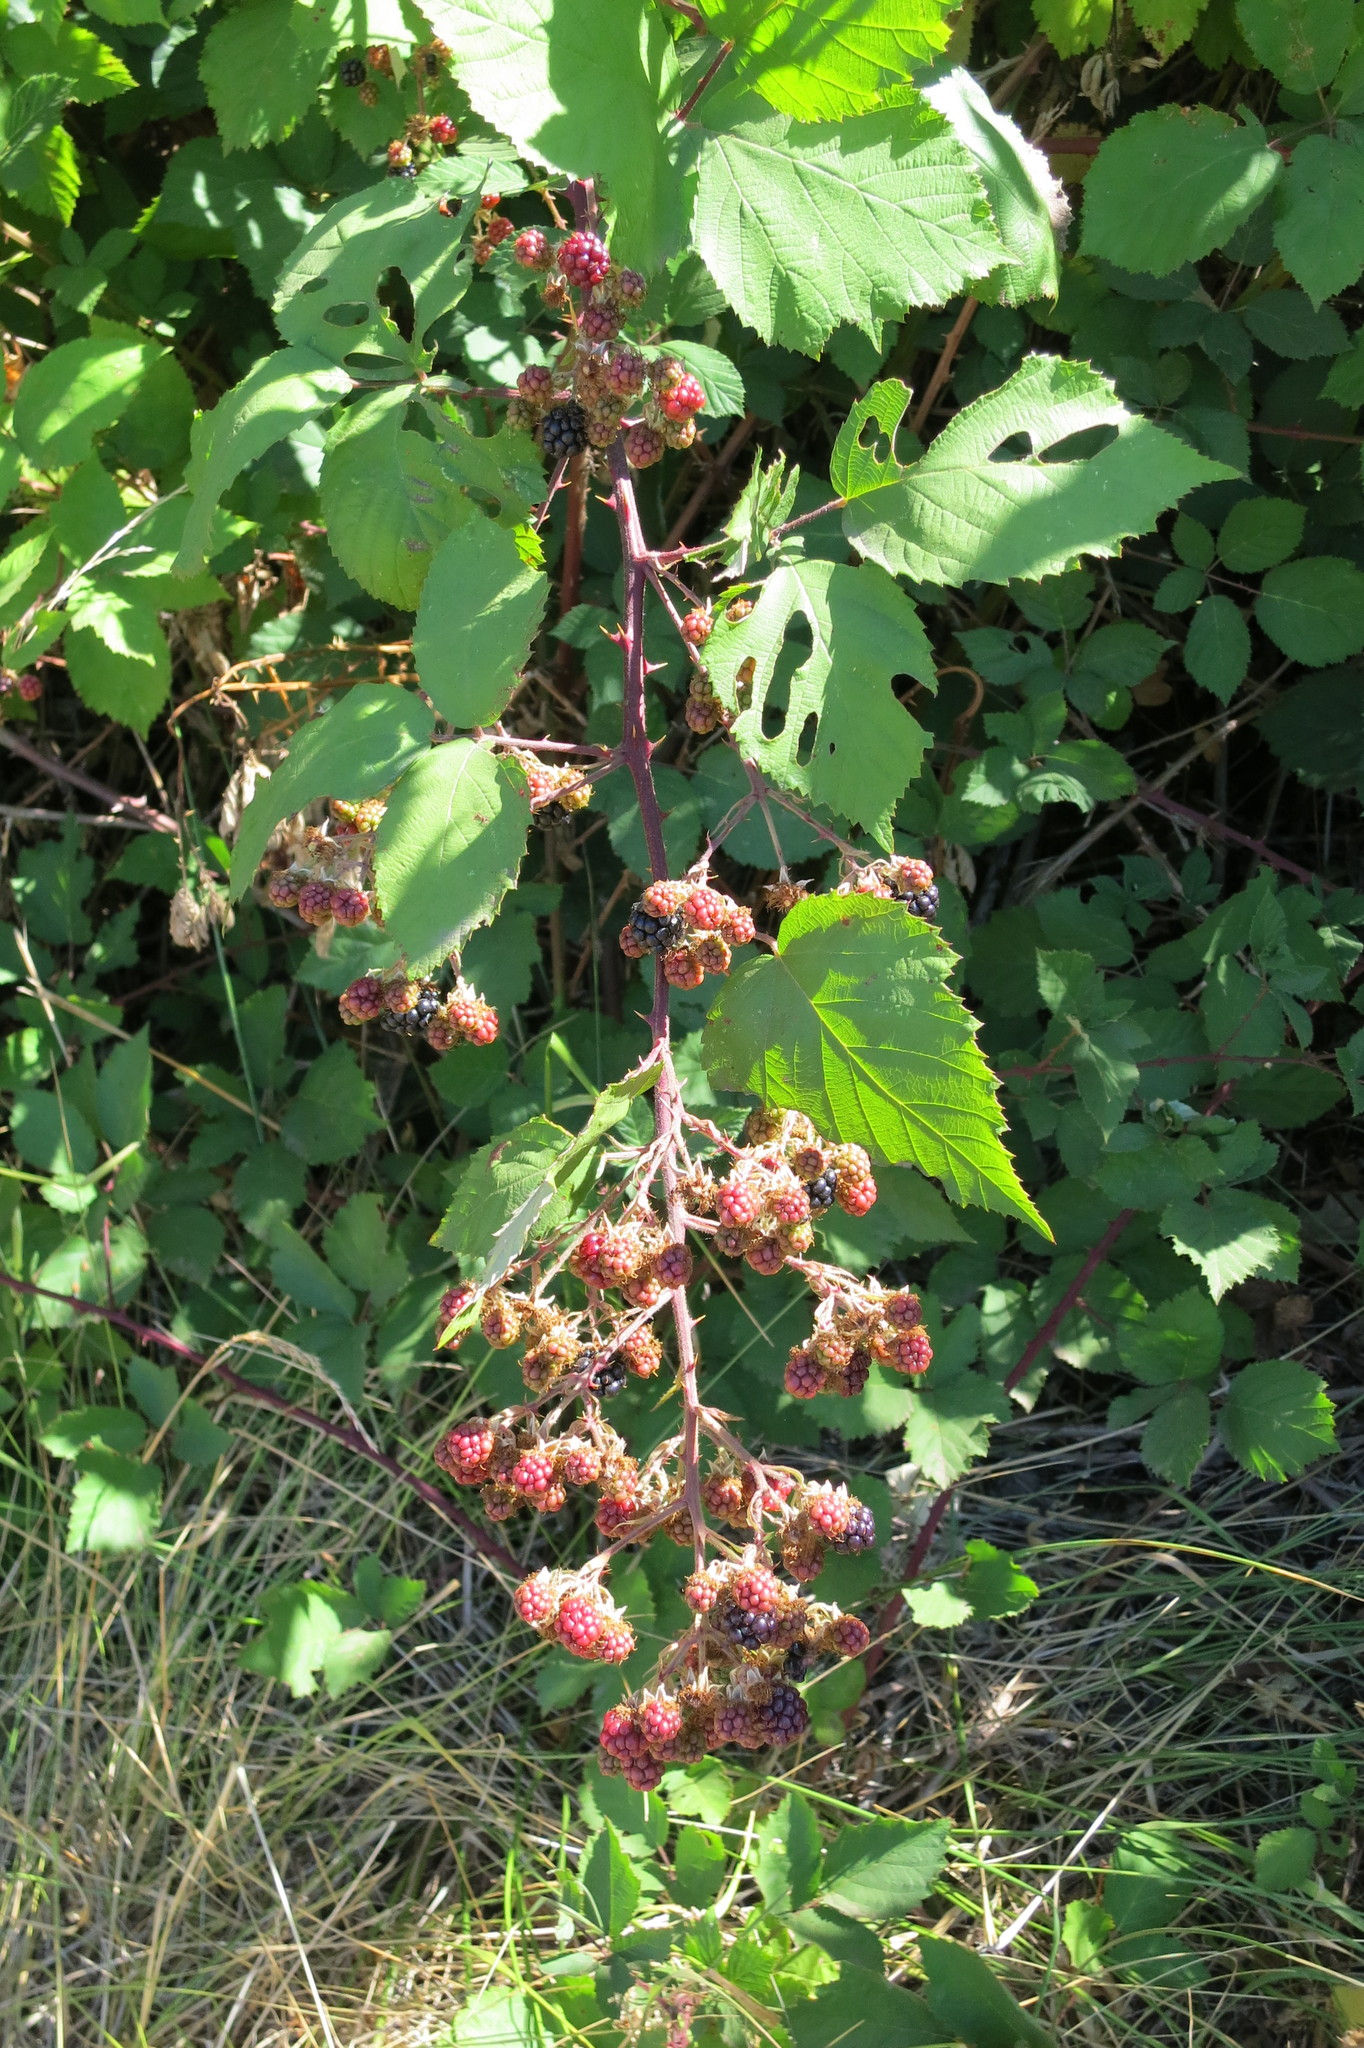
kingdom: Plantae
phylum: Tracheophyta
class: Magnoliopsida
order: Rosales
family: Rosaceae
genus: Rubus
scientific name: Rubus praecox
